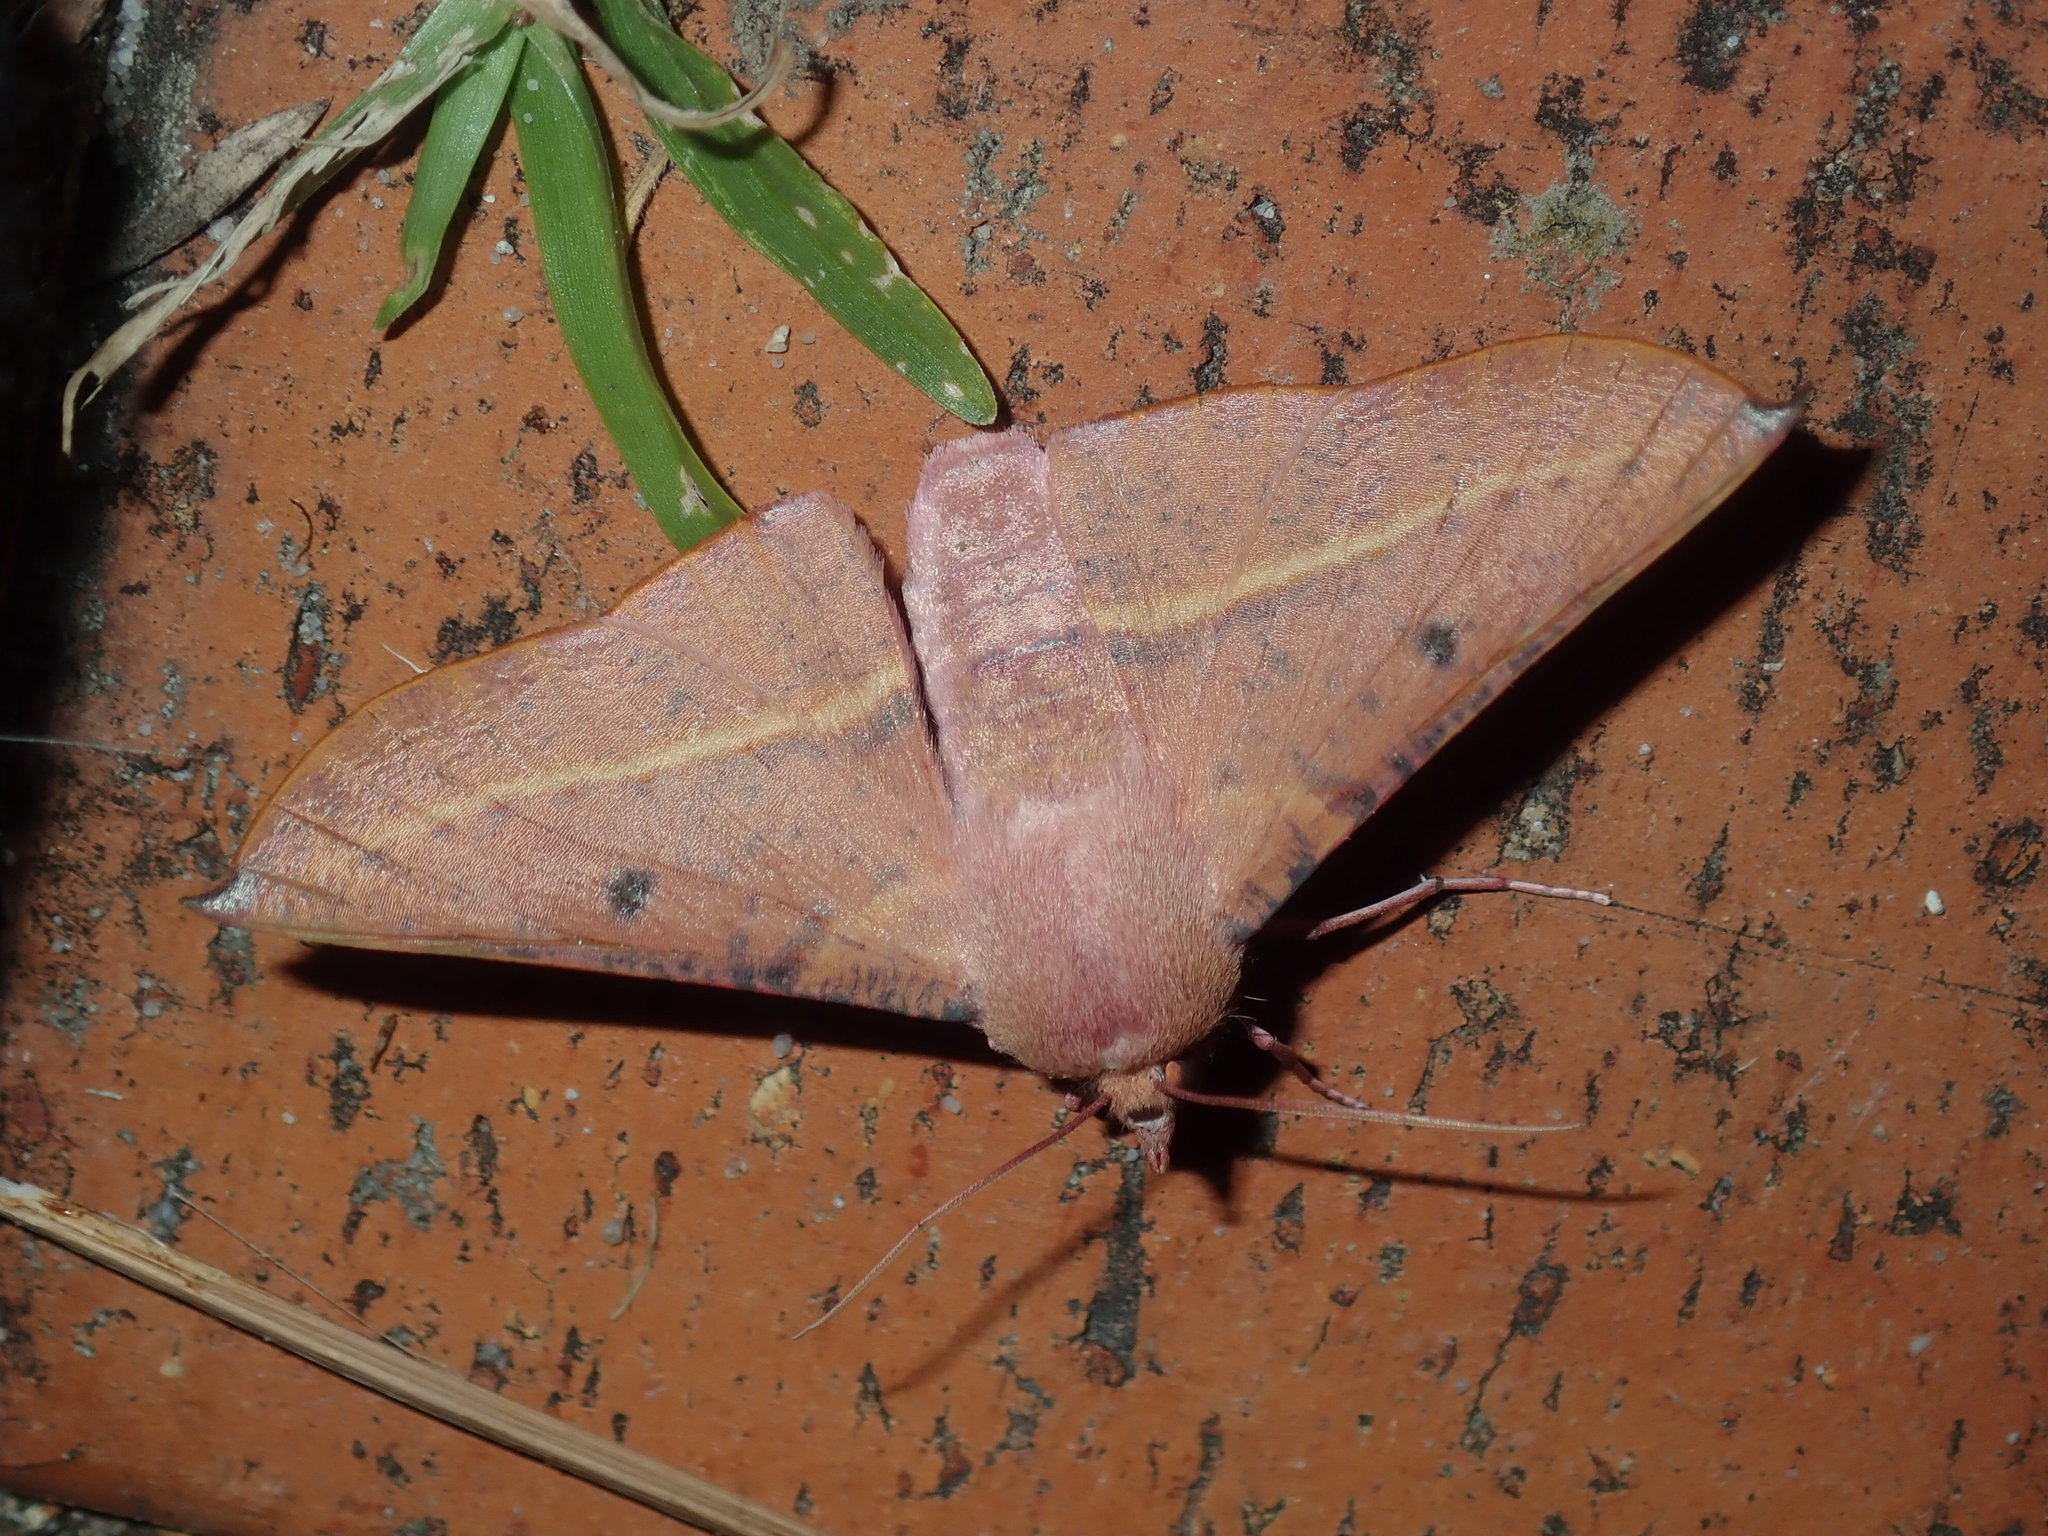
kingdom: Animalia
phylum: Arthropoda
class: Insecta
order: Lepidoptera
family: Geometridae
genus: Oenochroma
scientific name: Oenochroma vinaria
